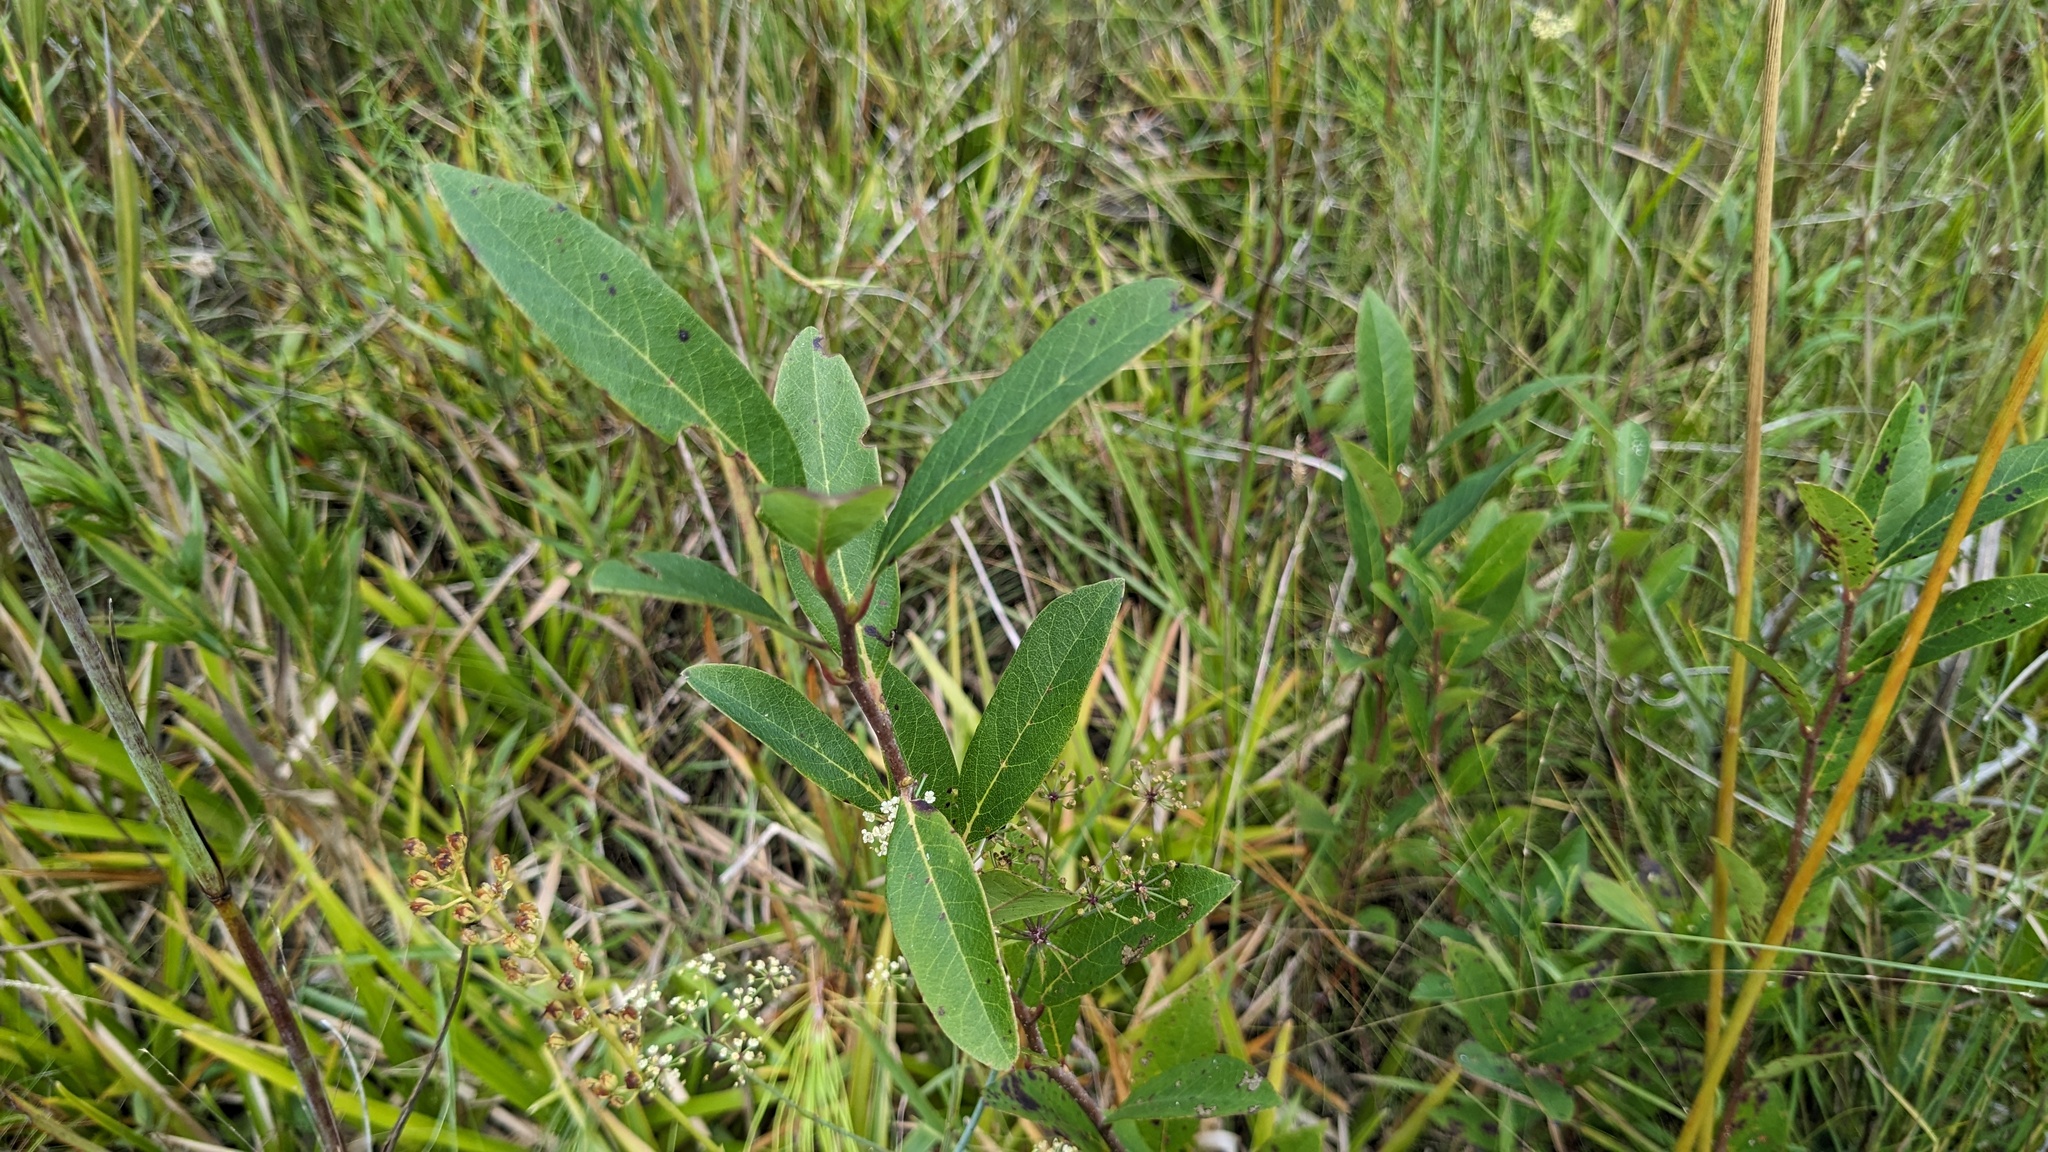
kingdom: Plantae
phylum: Tracheophyta
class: Magnoliopsida
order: Cornales
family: Nyssaceae
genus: Nyssa
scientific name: Nyssa biflora
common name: Swamp blackgum
